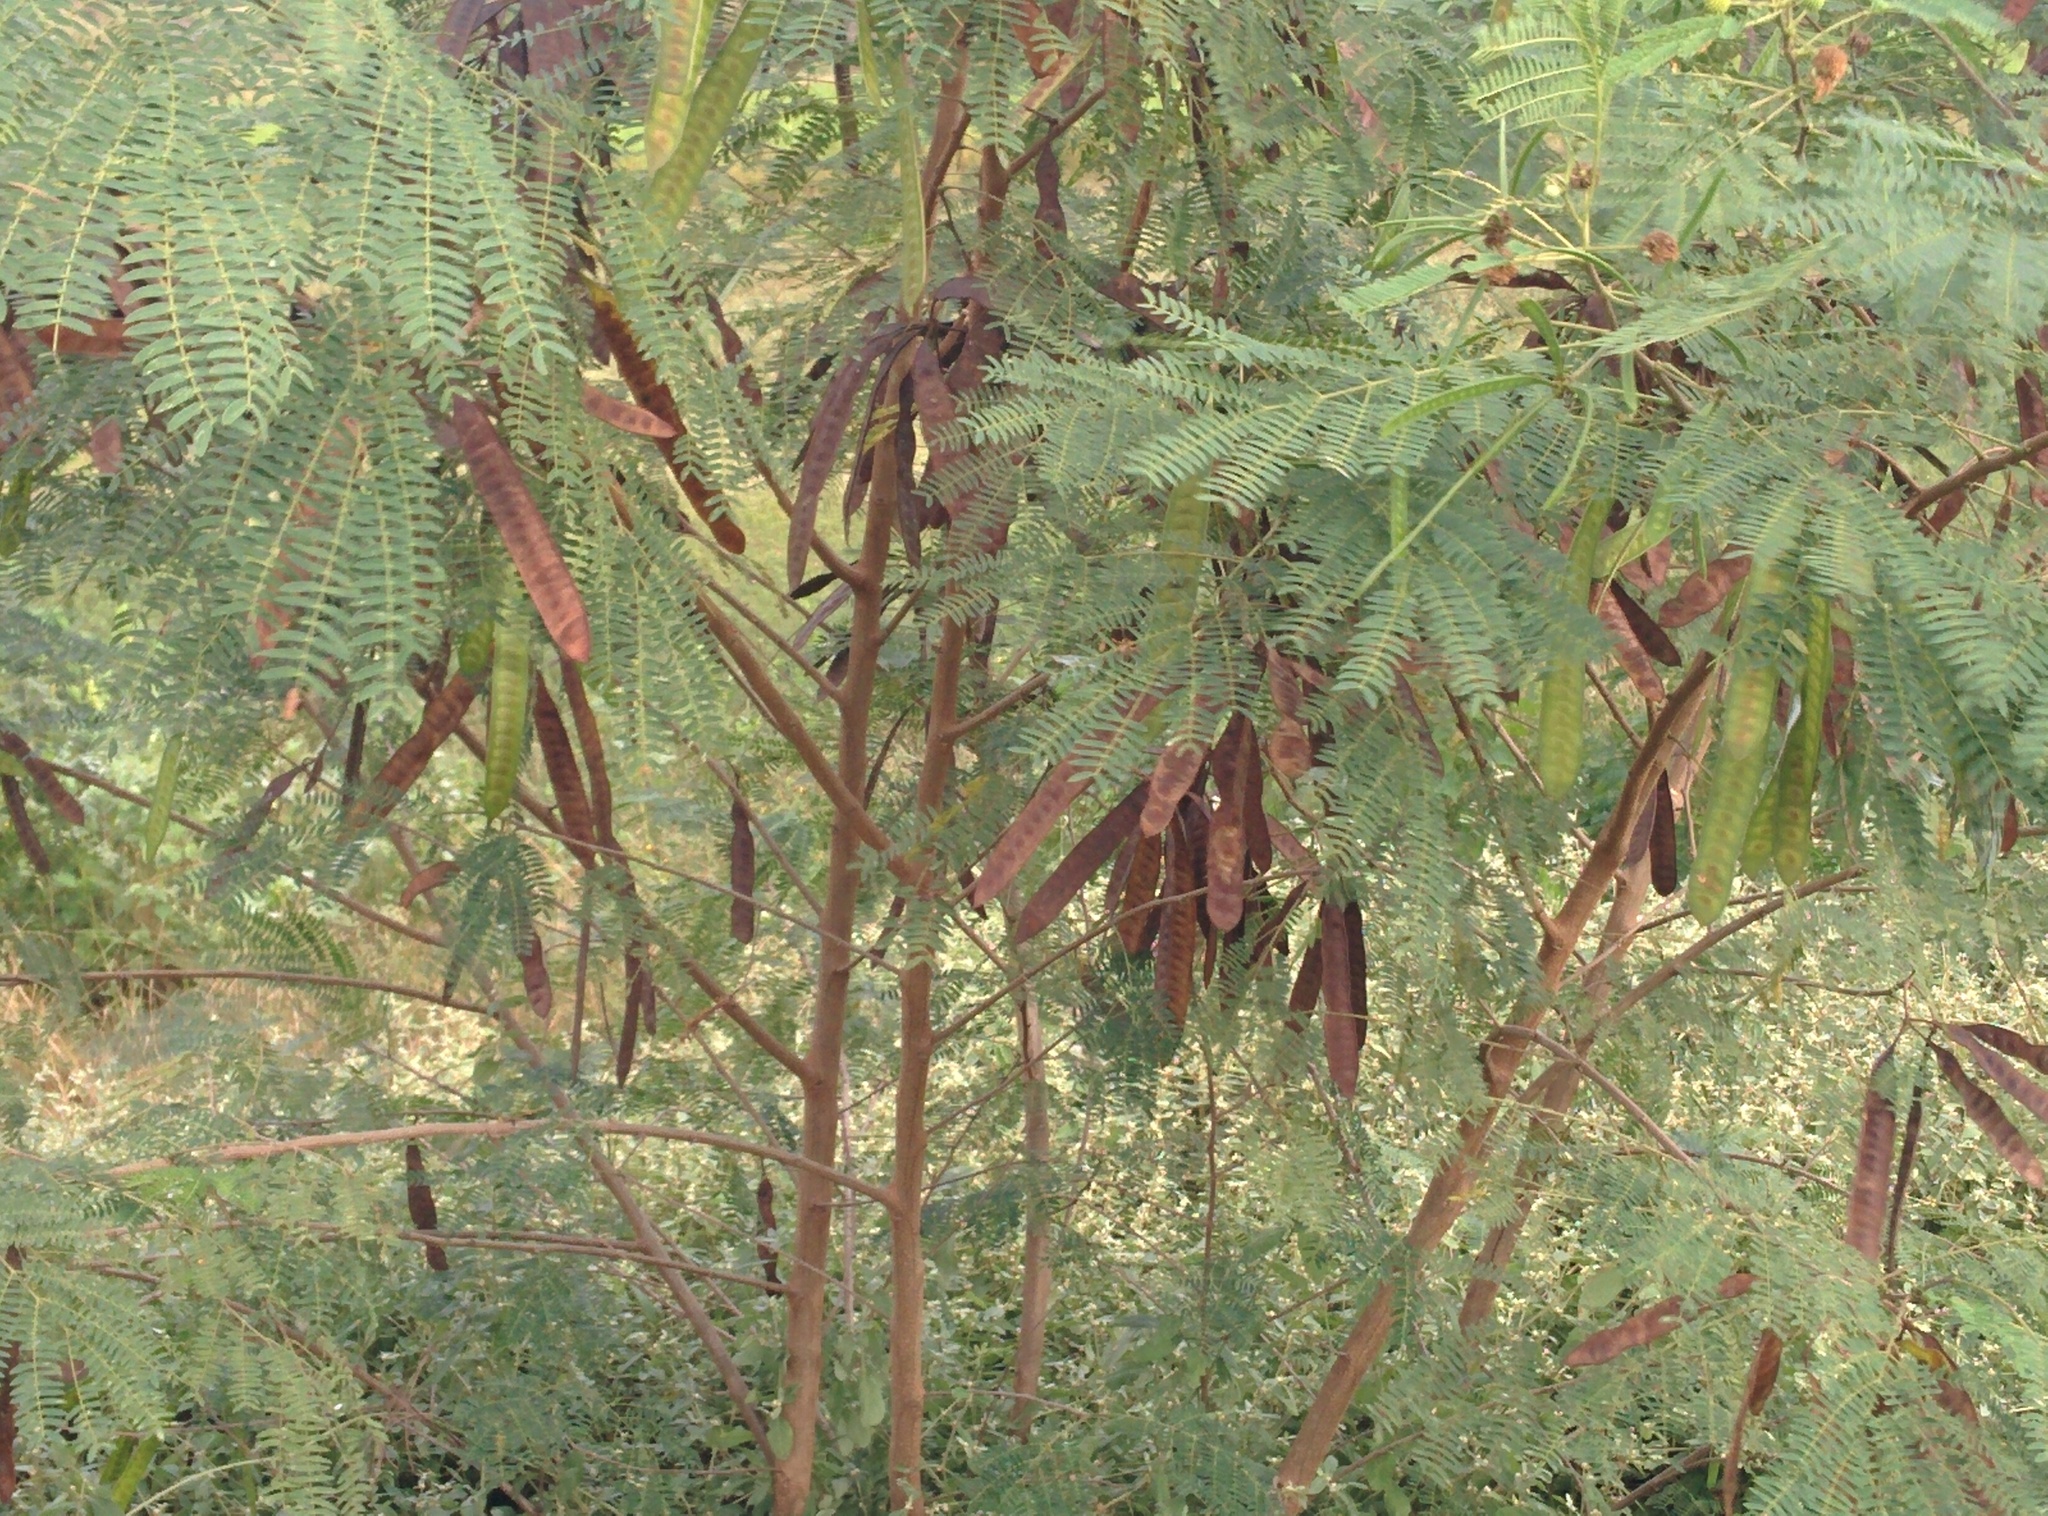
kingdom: Plantae
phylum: Tracheophyta
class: Magnoliopsida
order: Fabales
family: Fabaceae
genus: Leucaena
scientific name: Leucaena leucocephala
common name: White leadtree
